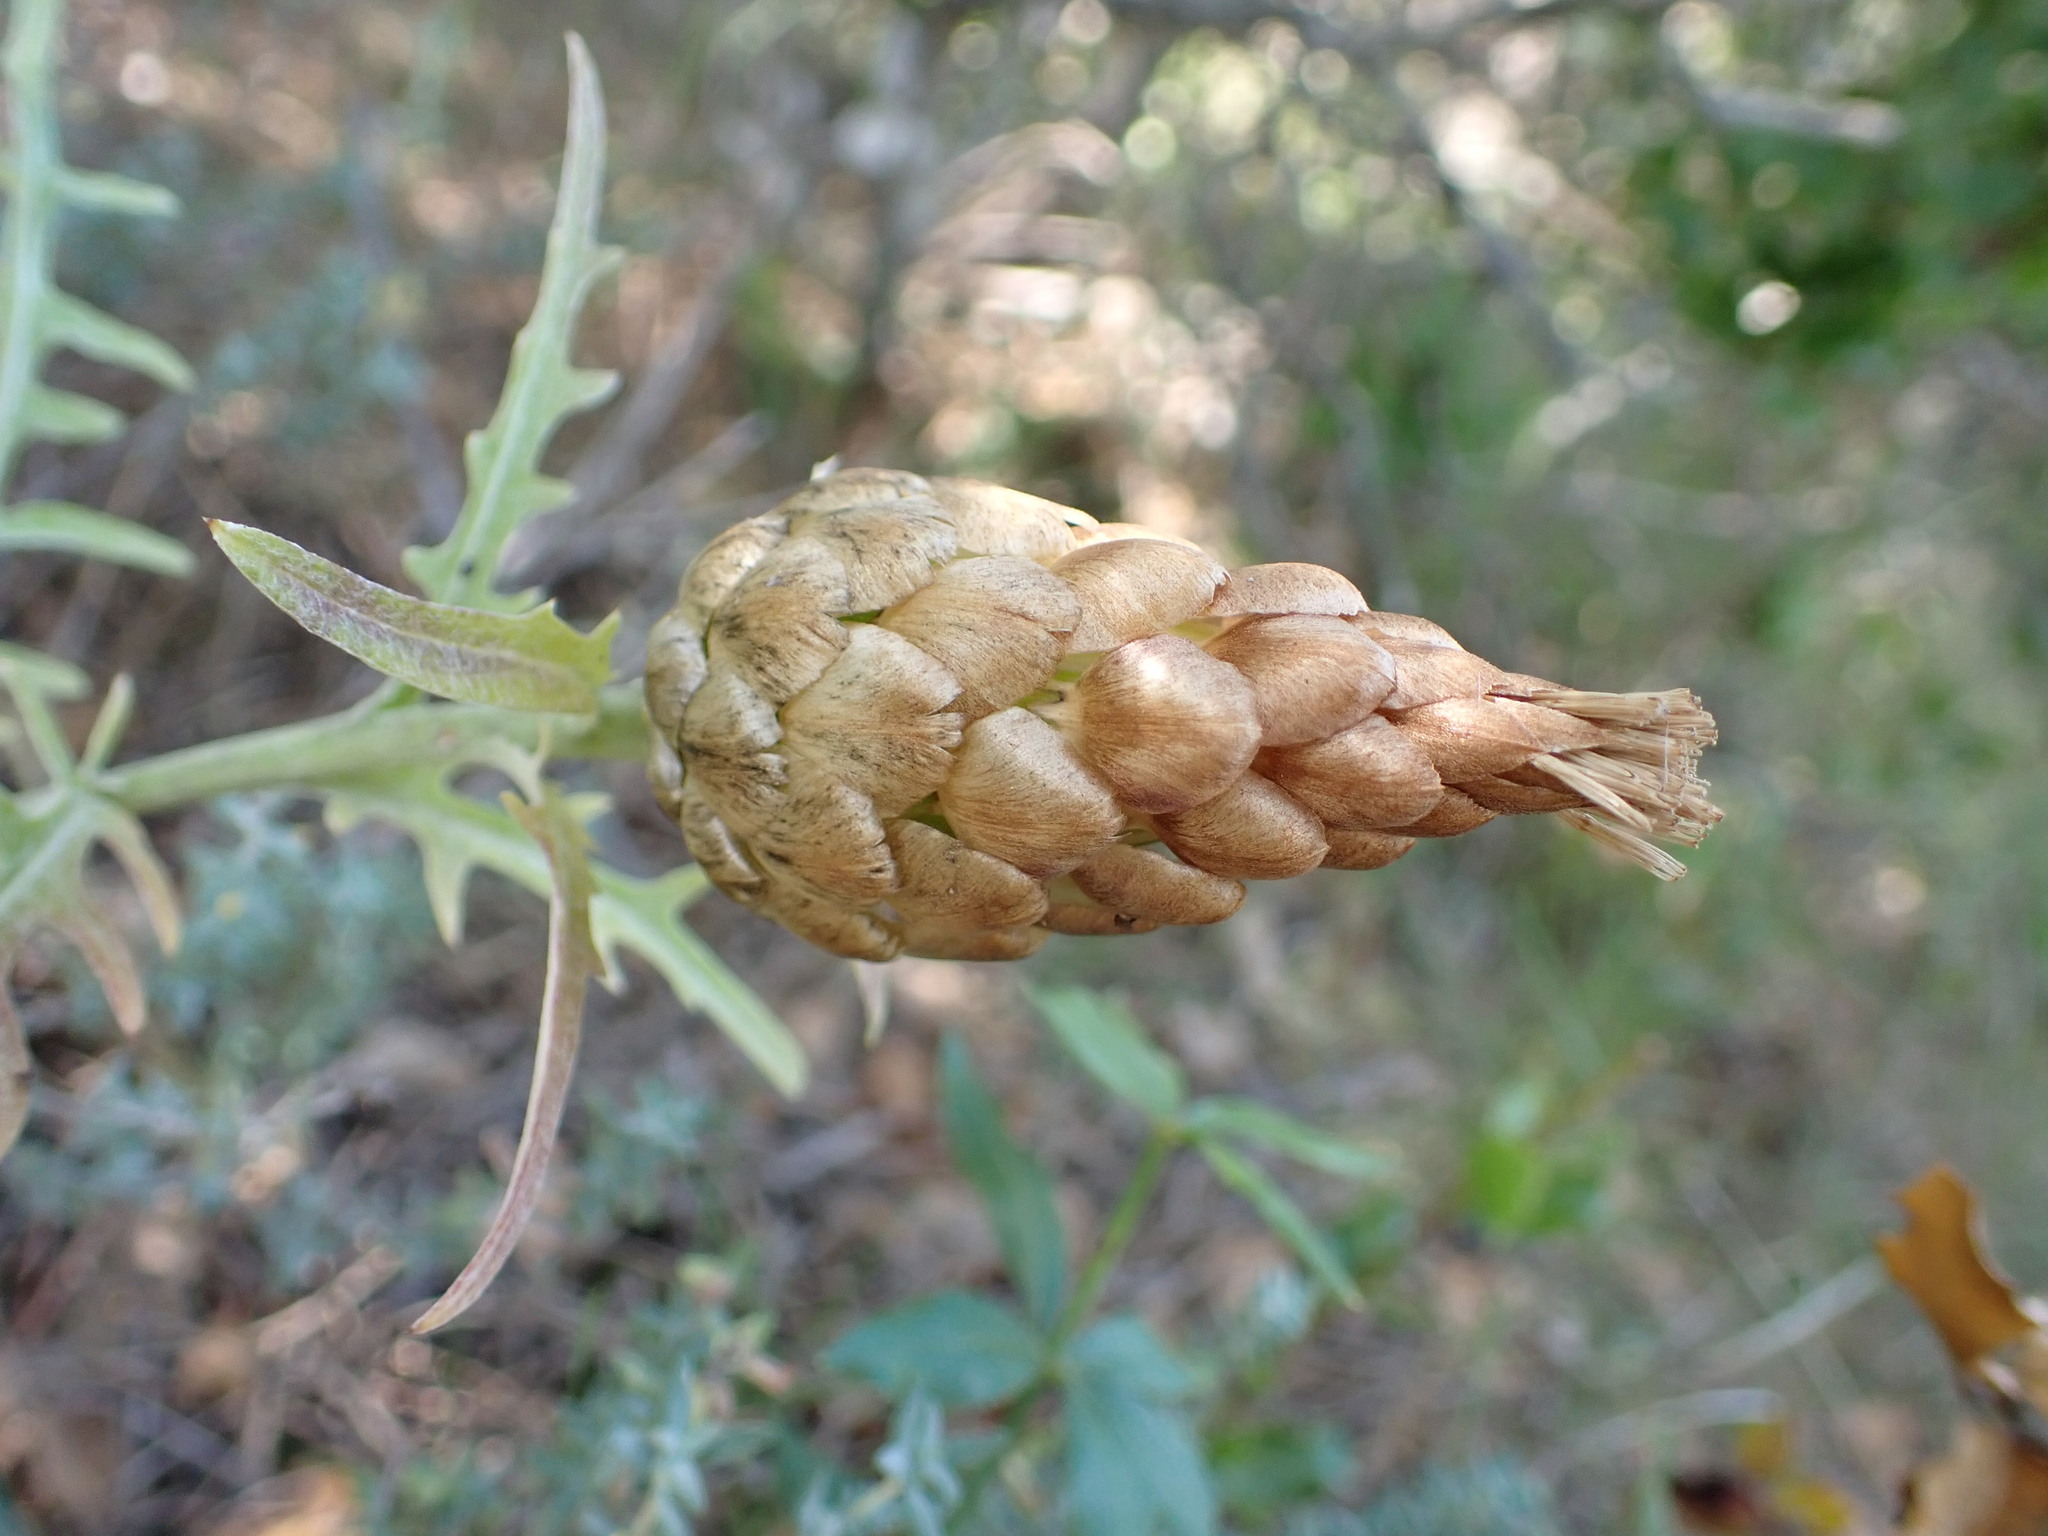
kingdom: Plantae
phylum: Tracheophyta
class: Magnoliopsida
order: Asterales
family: Asteraceae
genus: Leuzea
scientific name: Leuzea conifera
